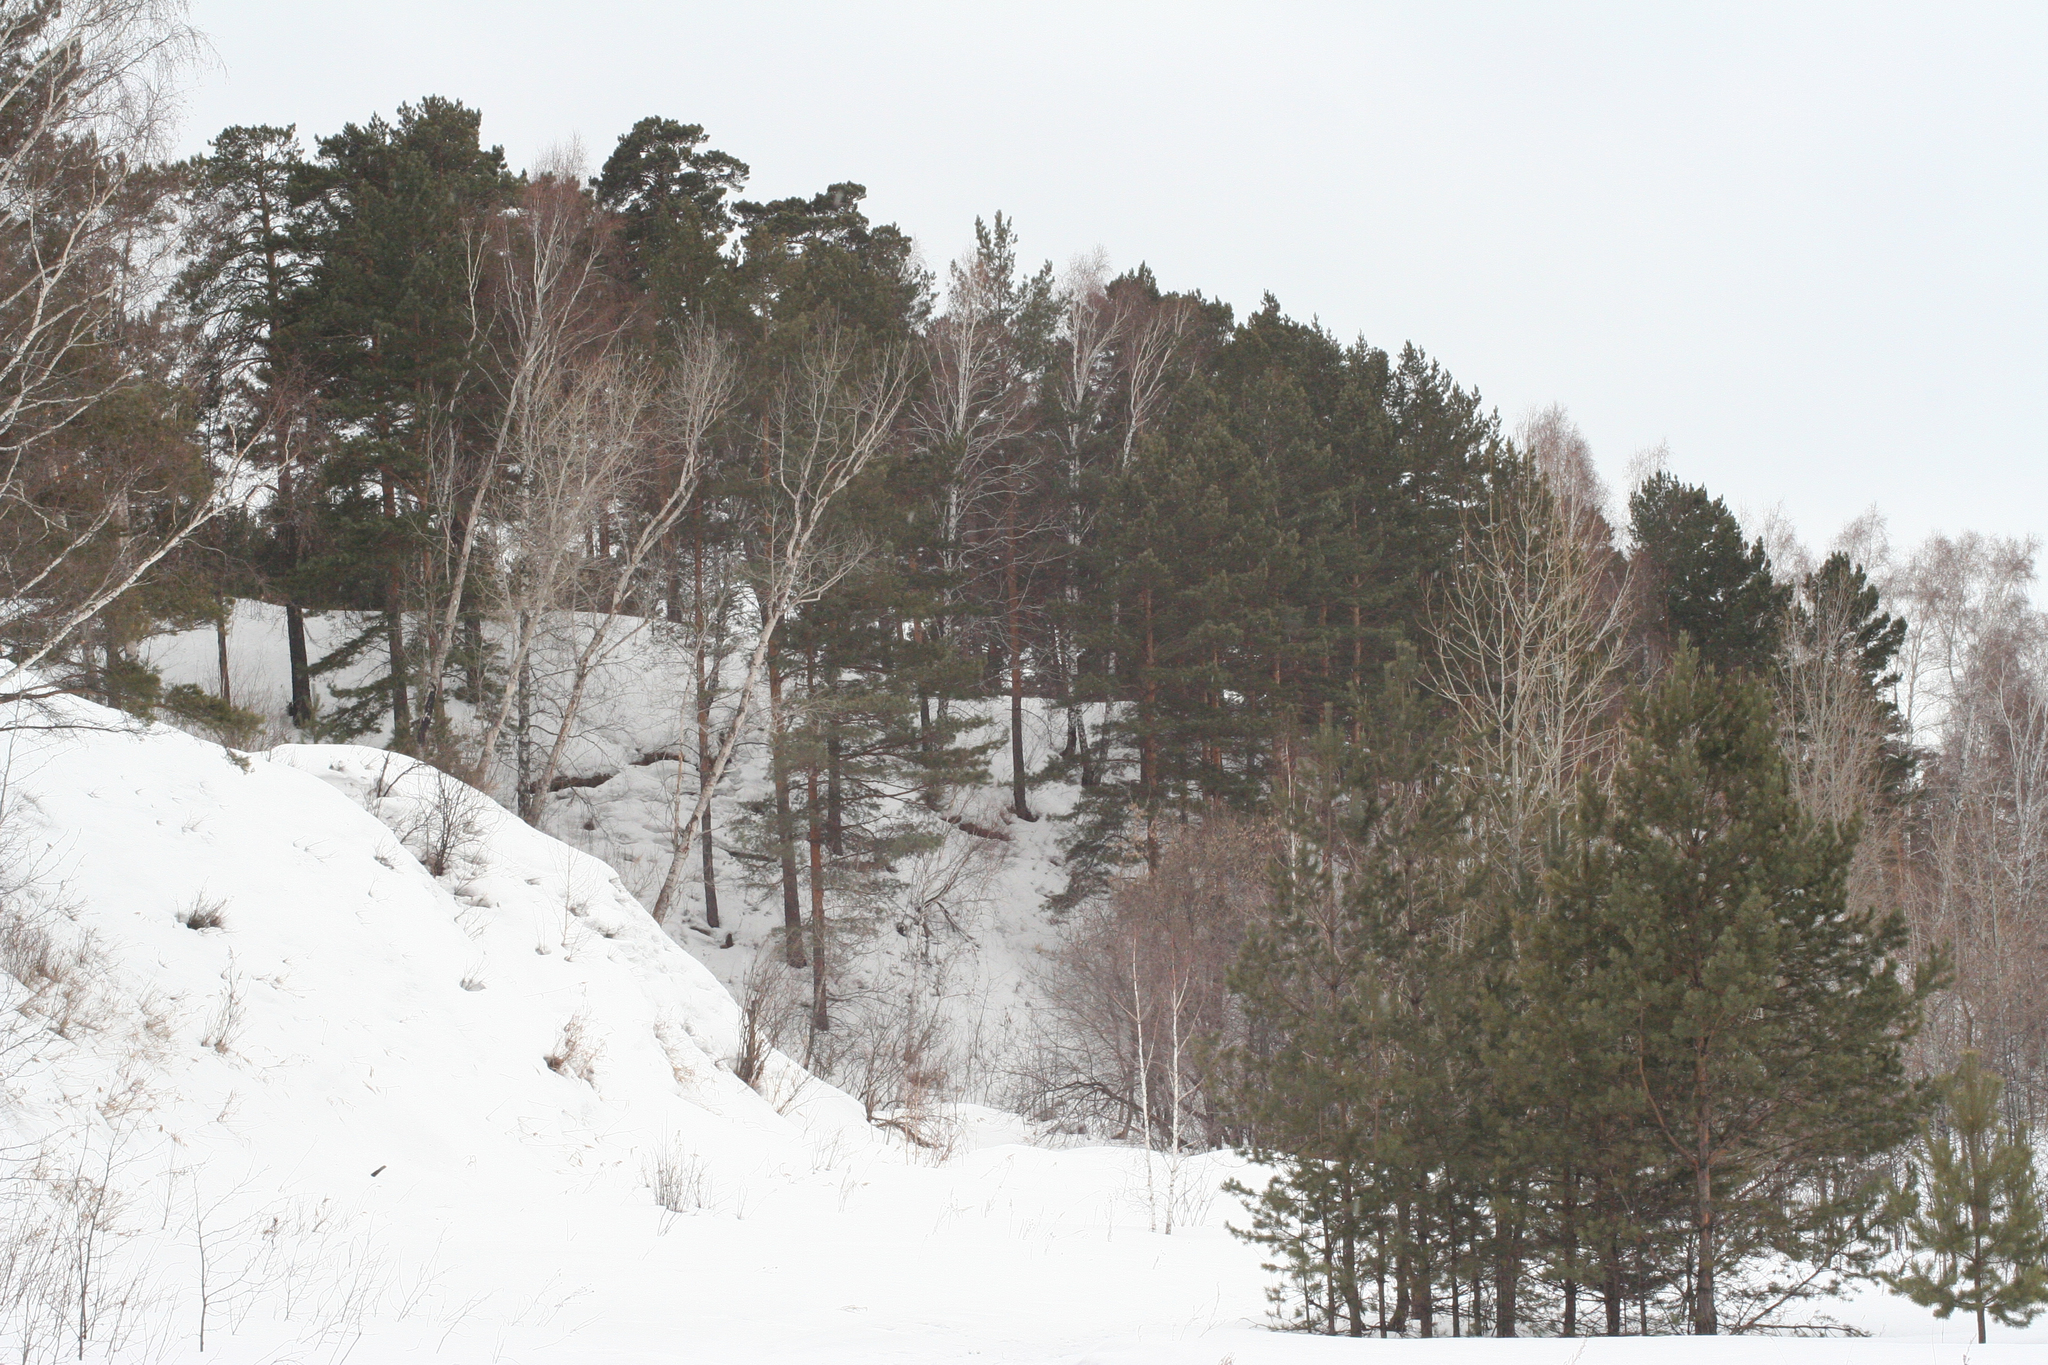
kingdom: Plantae
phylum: Tracheophyta
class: Pinopsida
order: Pinales
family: Pinaceae
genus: Pinus
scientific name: Pinus sylvestris
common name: Scots pine
